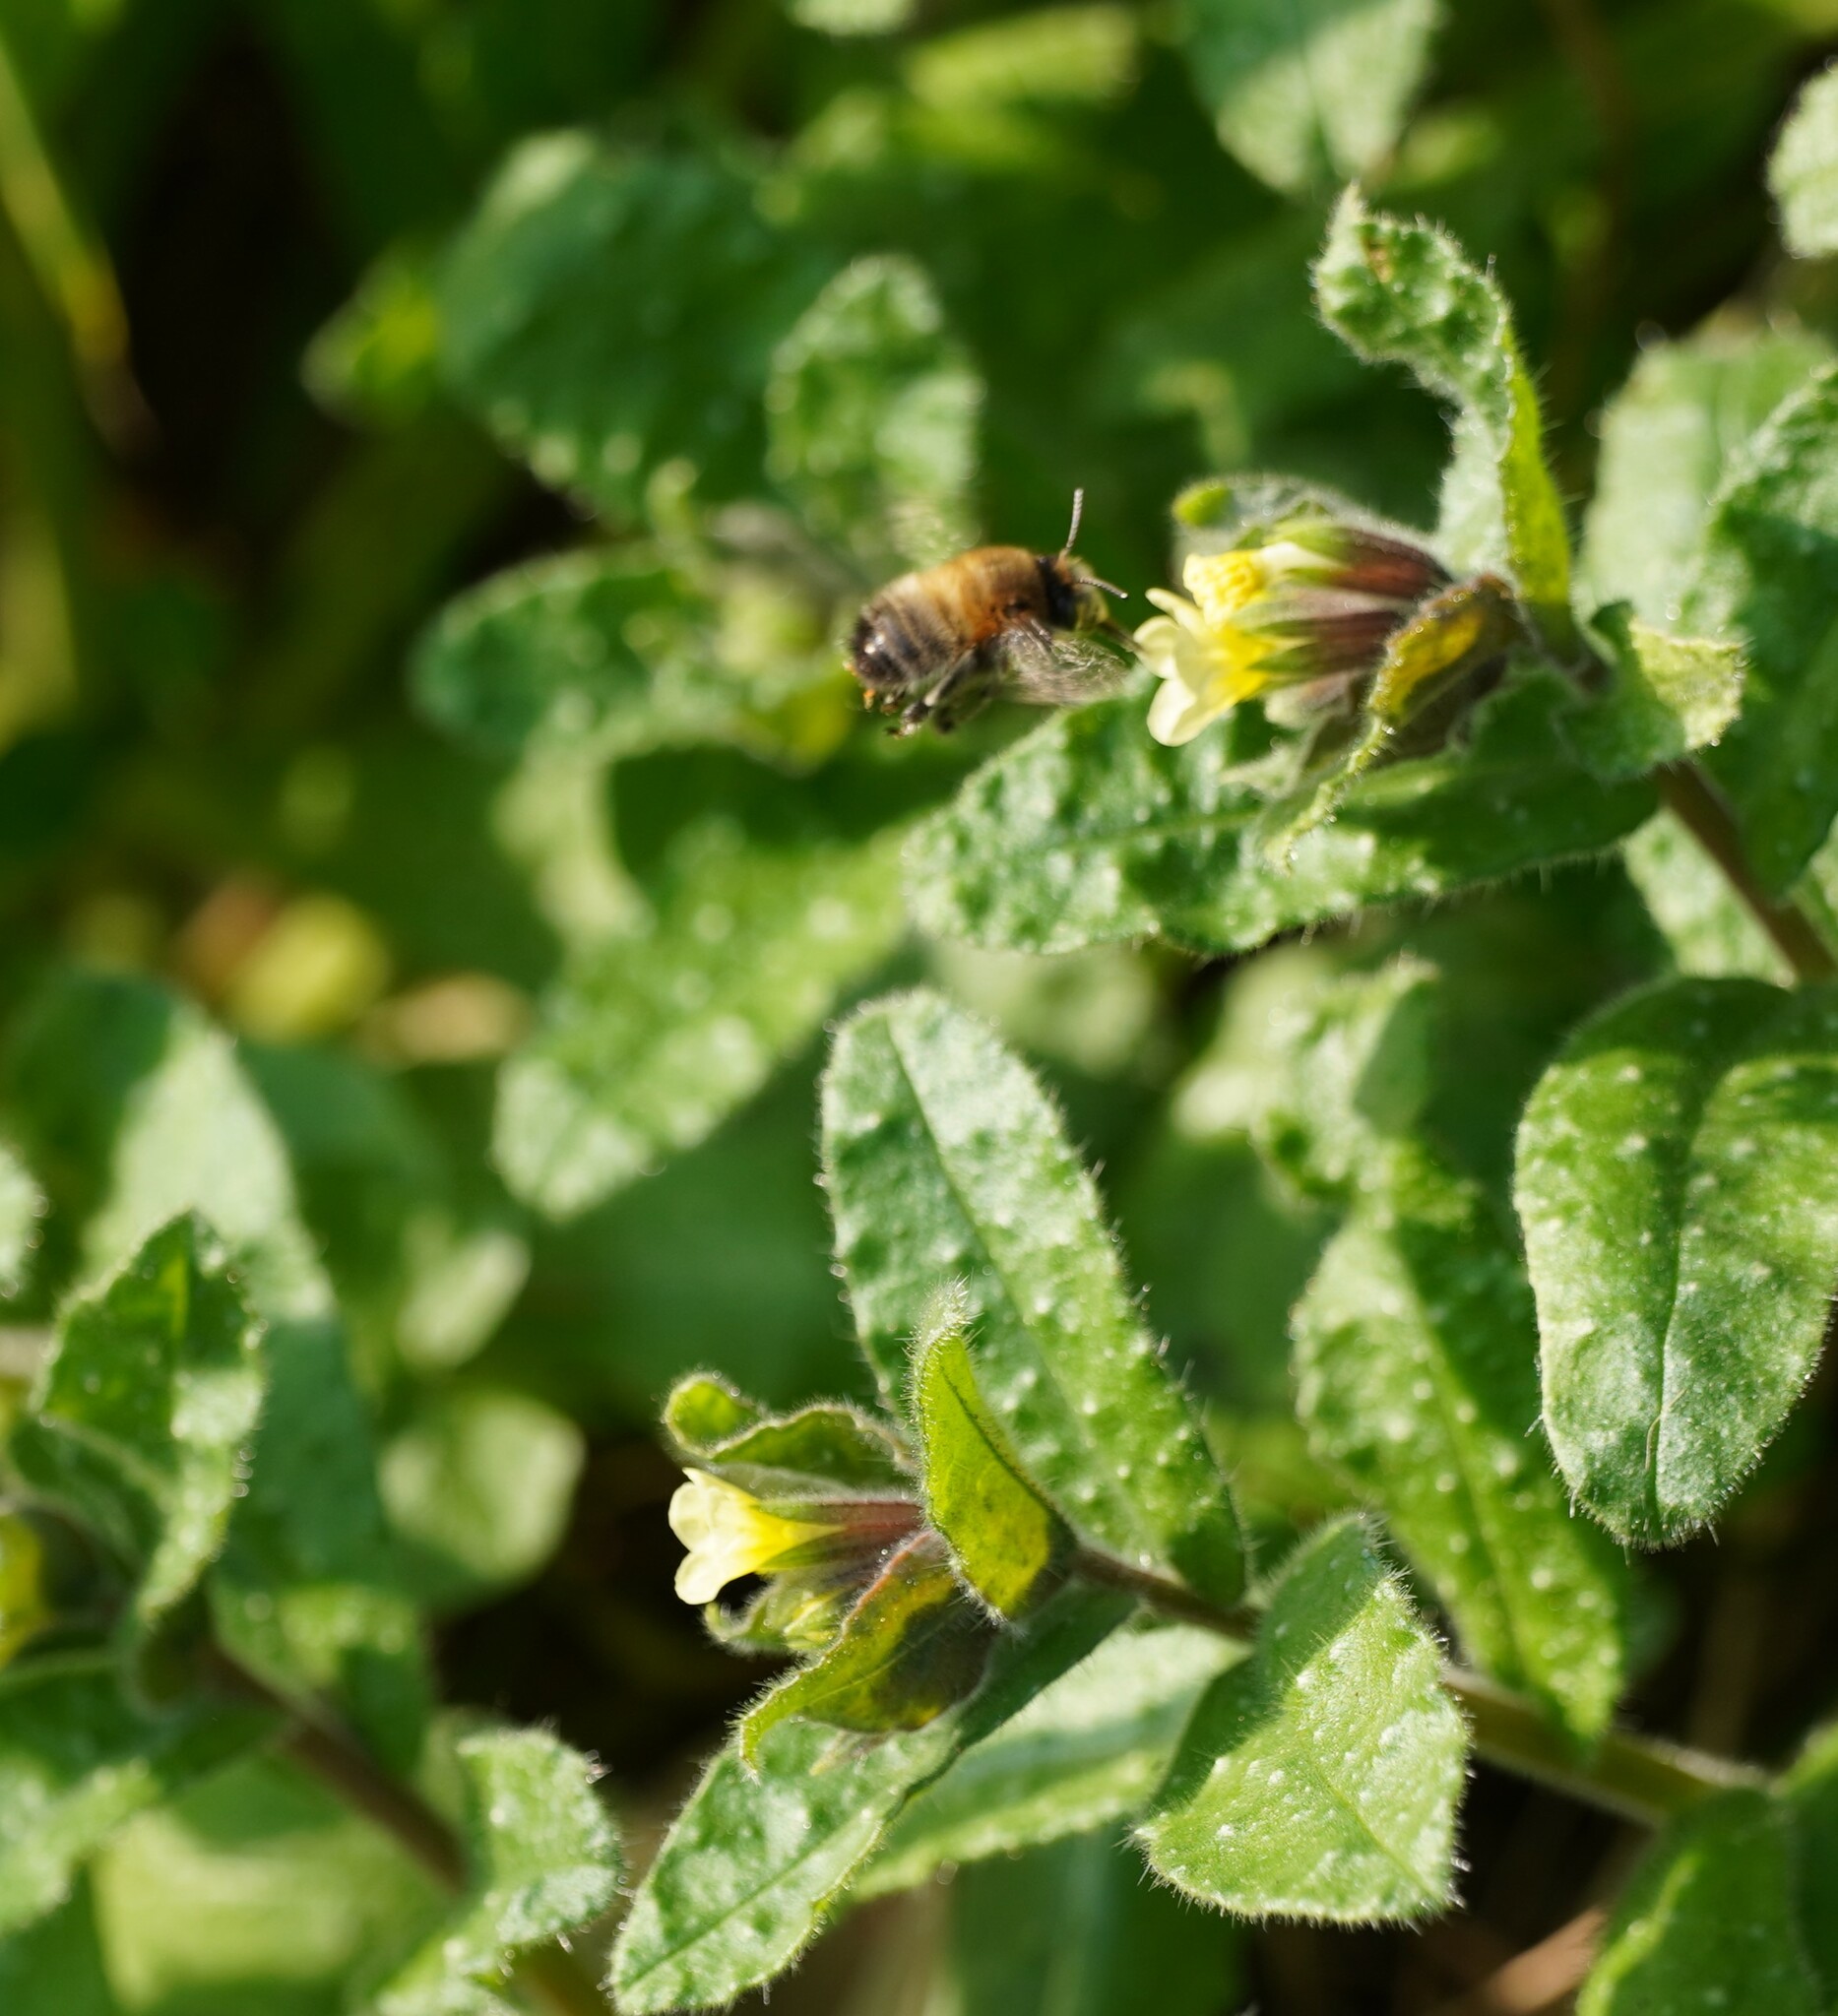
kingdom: Plantae
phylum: Tracheophyta
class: Magnoliopsida
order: Boraginales
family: Boraginaceae
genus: Nonea
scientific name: Nonea lutea
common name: Yellow nonea
